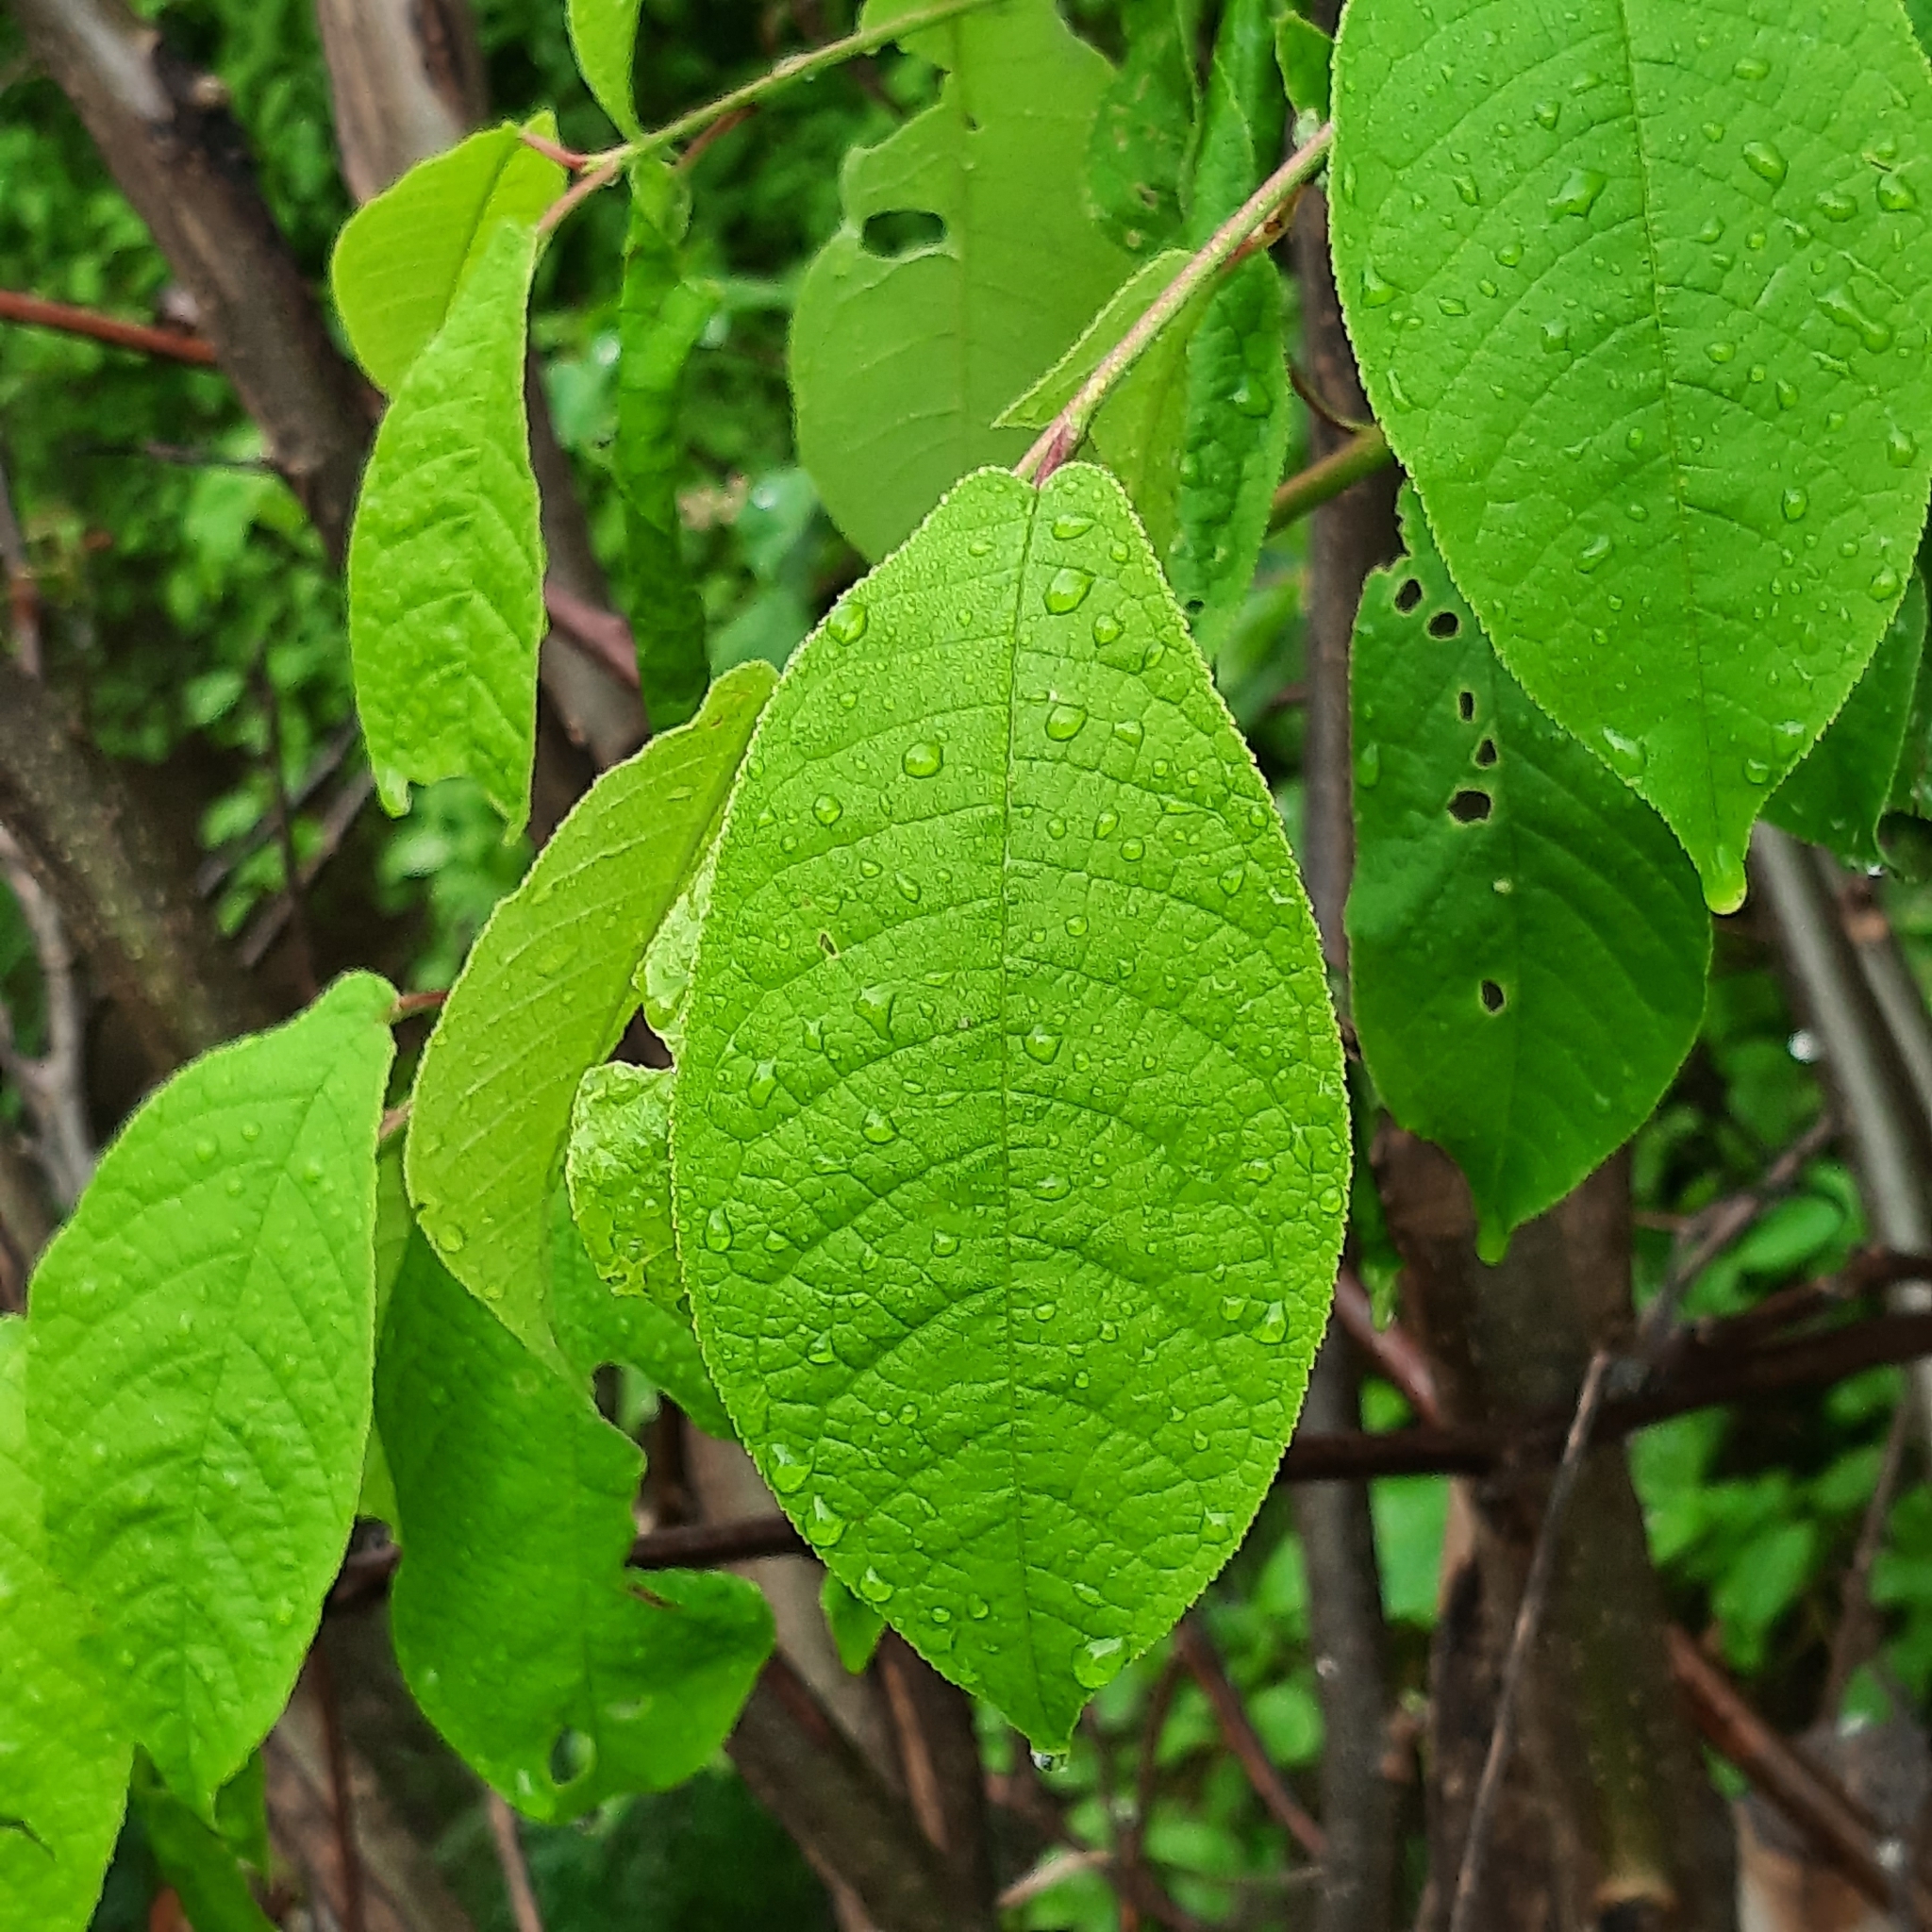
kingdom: Plantae
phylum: Tracheophyta
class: Magnoliopsida
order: Rosales
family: Rosaceae
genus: Prunus
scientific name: Prunus padus
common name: Bird cherry
